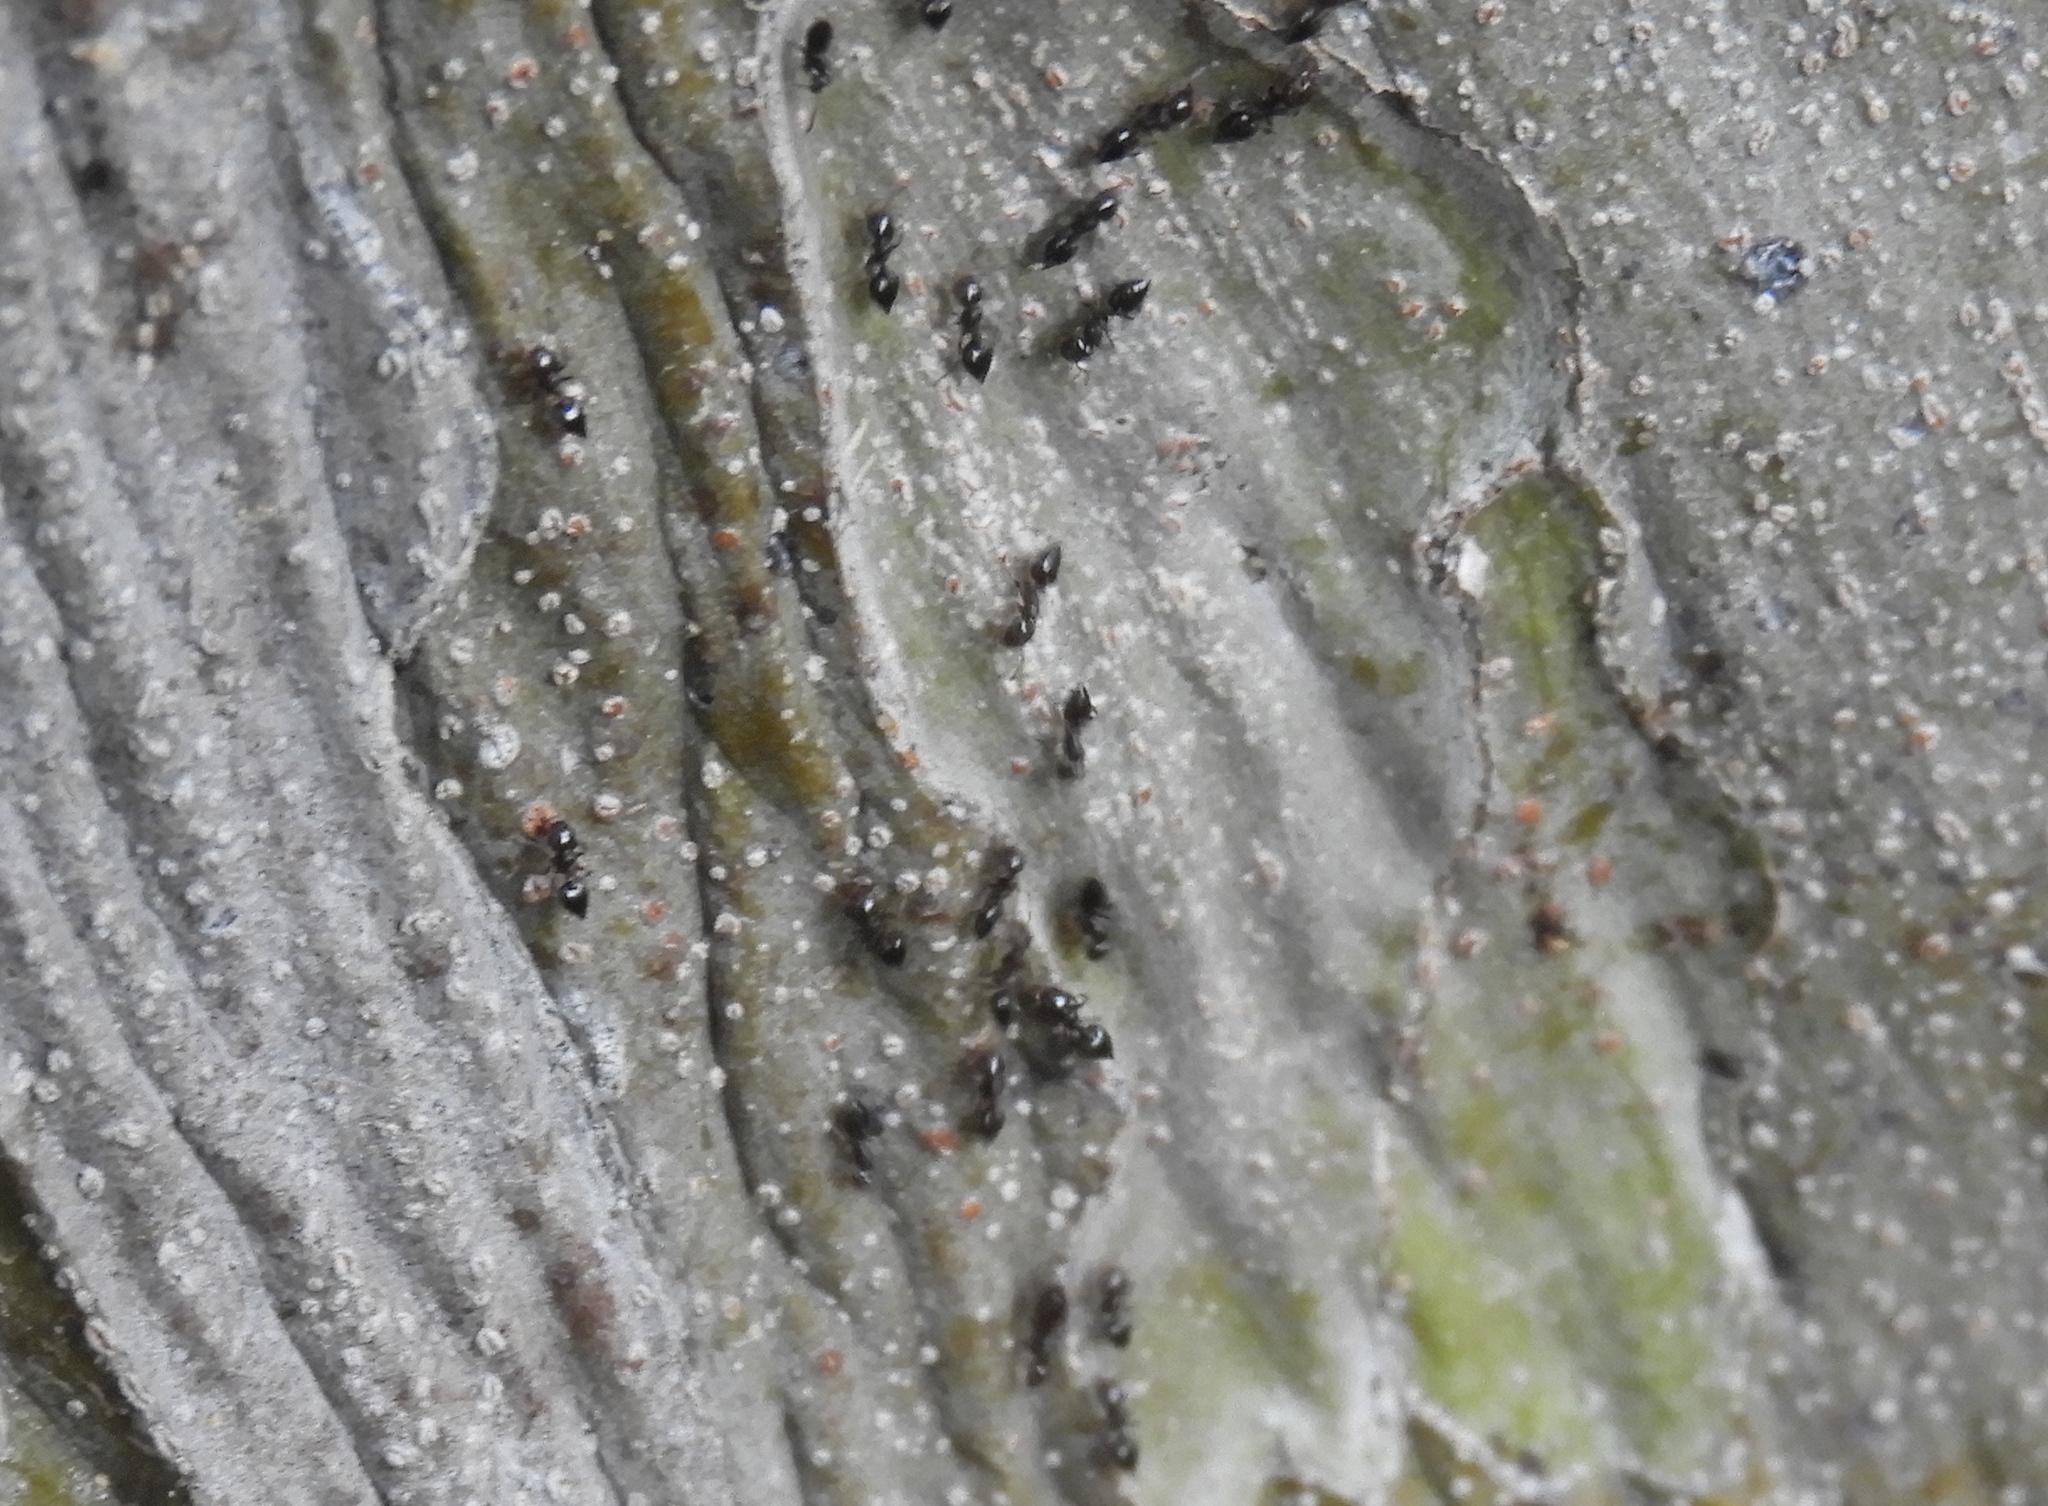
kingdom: Animalia
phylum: Arthropoda
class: Insecta
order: Hymenoptera
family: Formicidae
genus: Crematogaster
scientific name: Crematogaster
